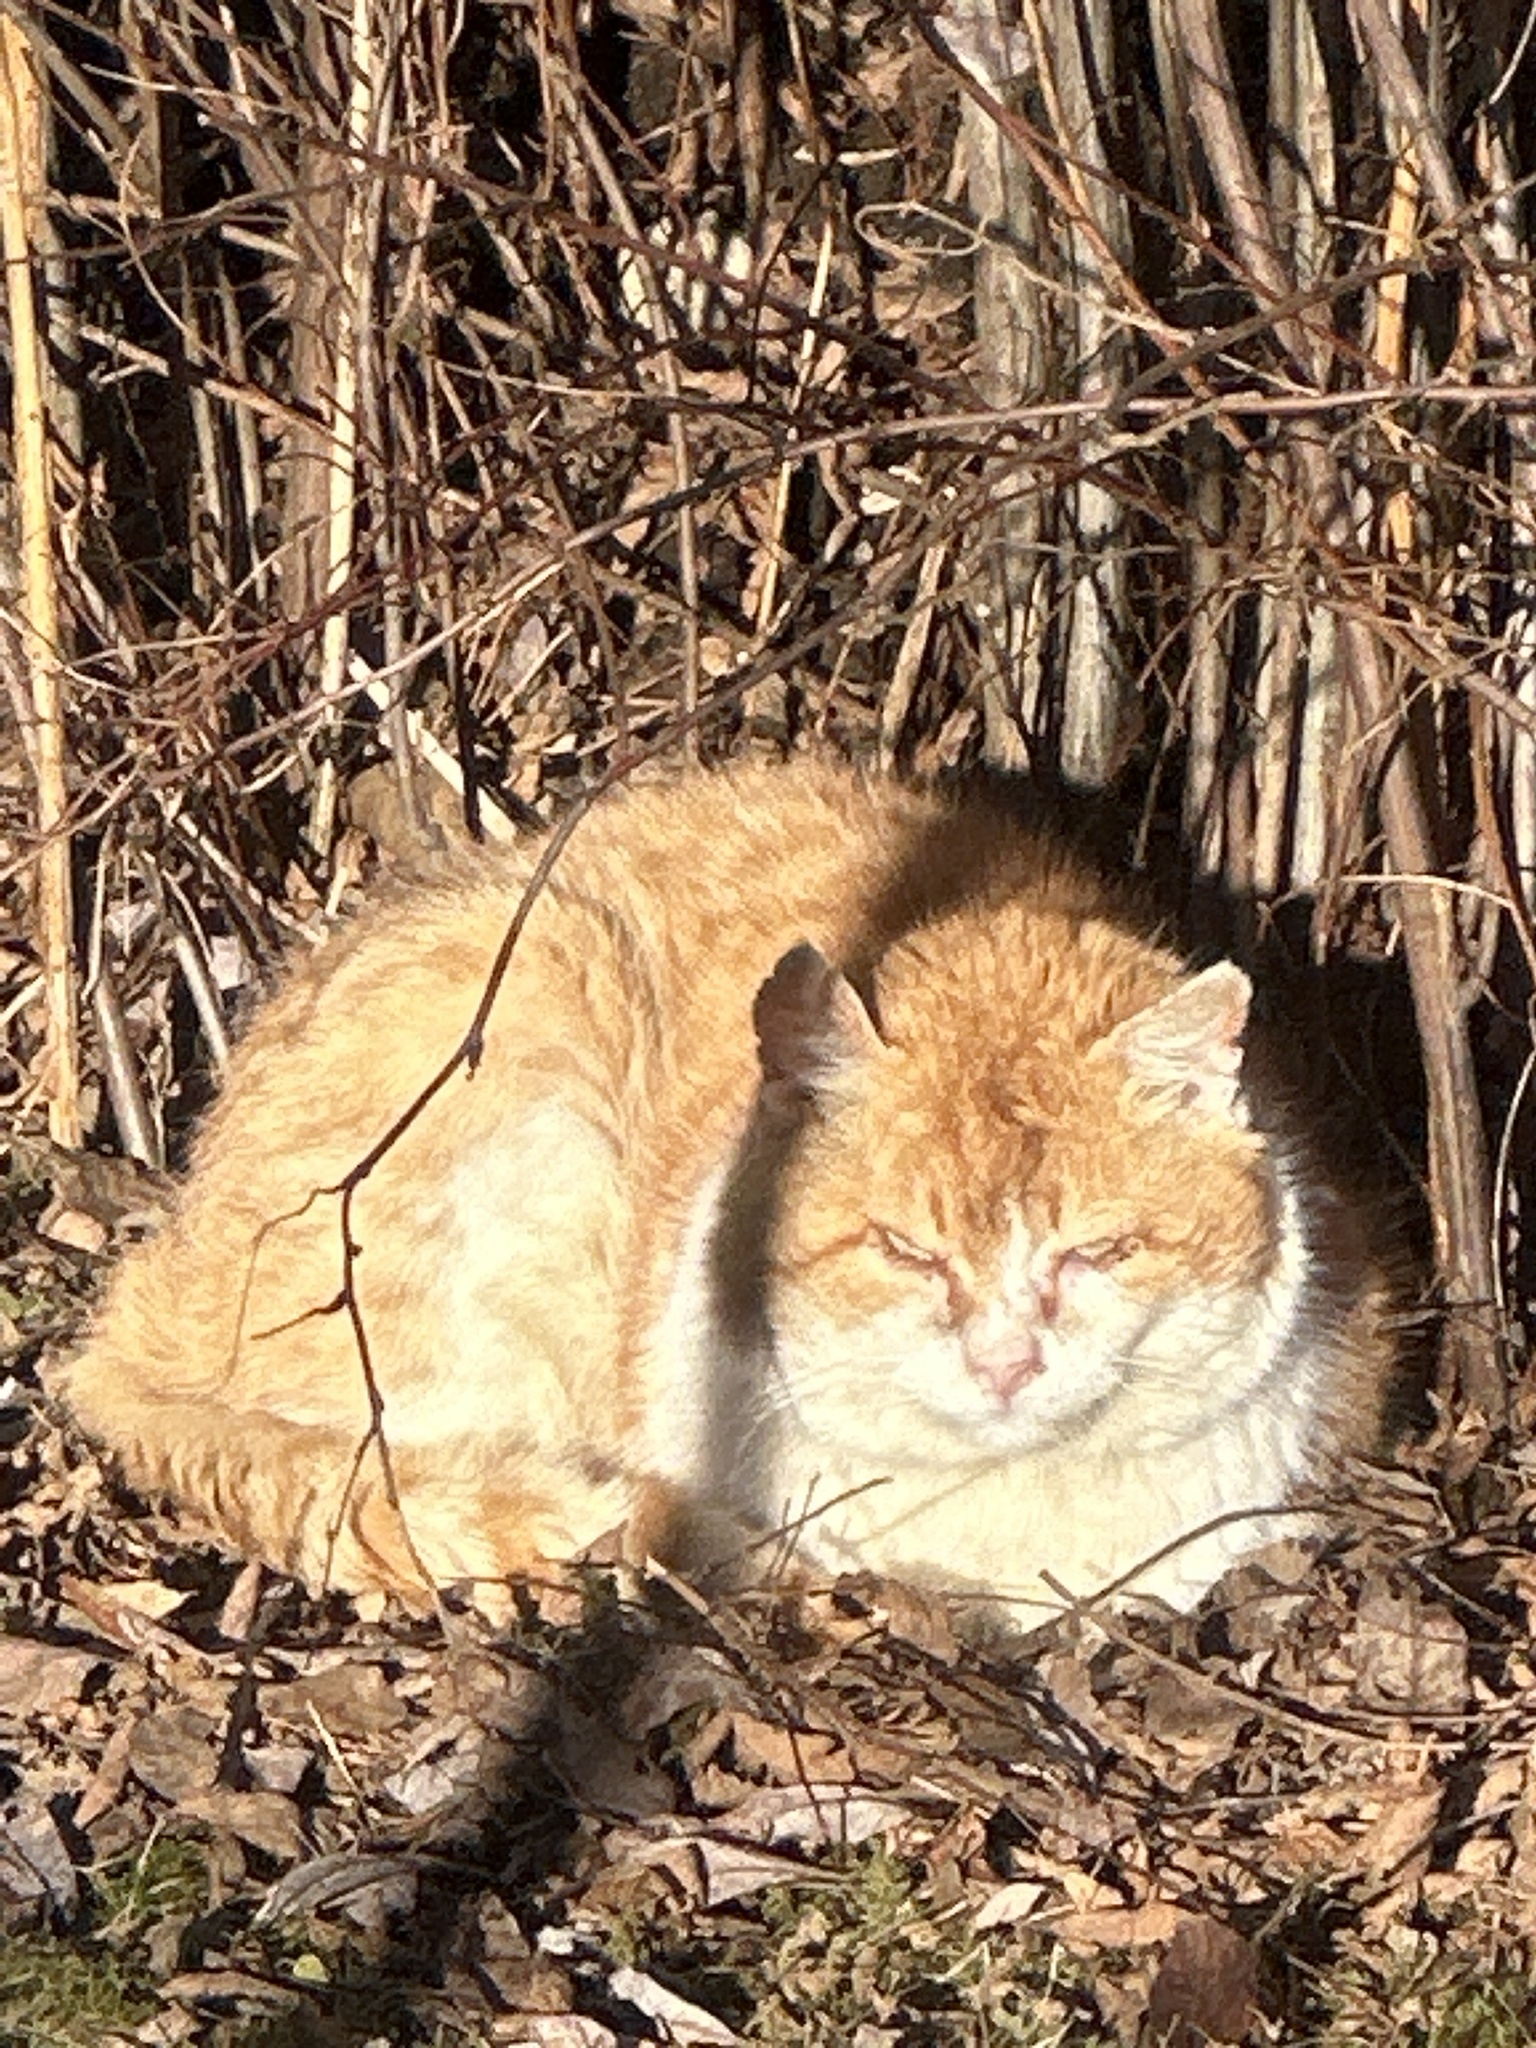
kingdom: Animalia
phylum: Chordata
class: Mammalia
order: Carnivora
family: Felidae
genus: Felis
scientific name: Felis catus
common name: Domestic cat
